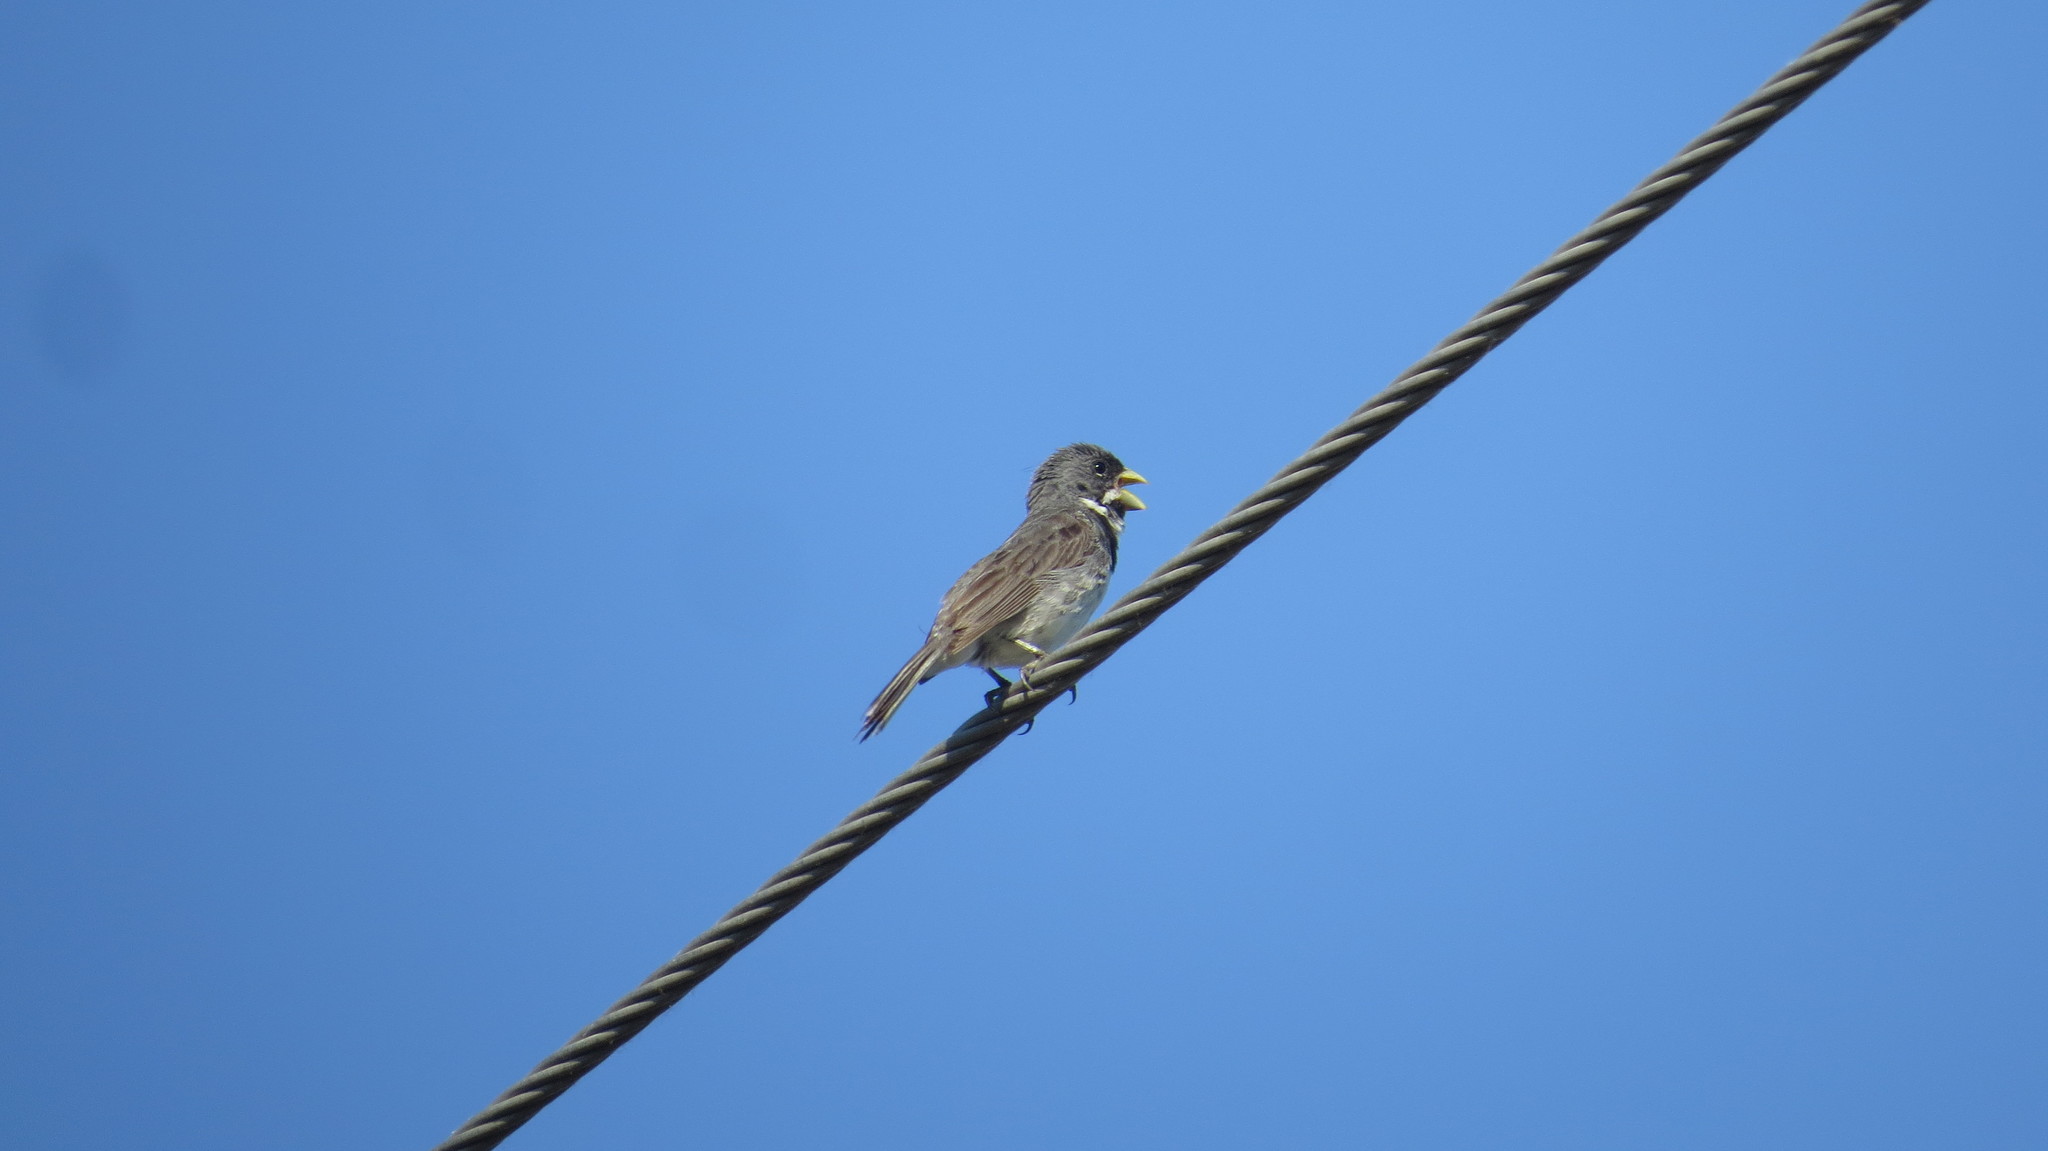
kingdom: Animalia
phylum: Chordata
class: Aves
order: Passeriformes
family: Thraupidae
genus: Sporophila
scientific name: Sporophila caerulescens
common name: Double-collared seedeater
